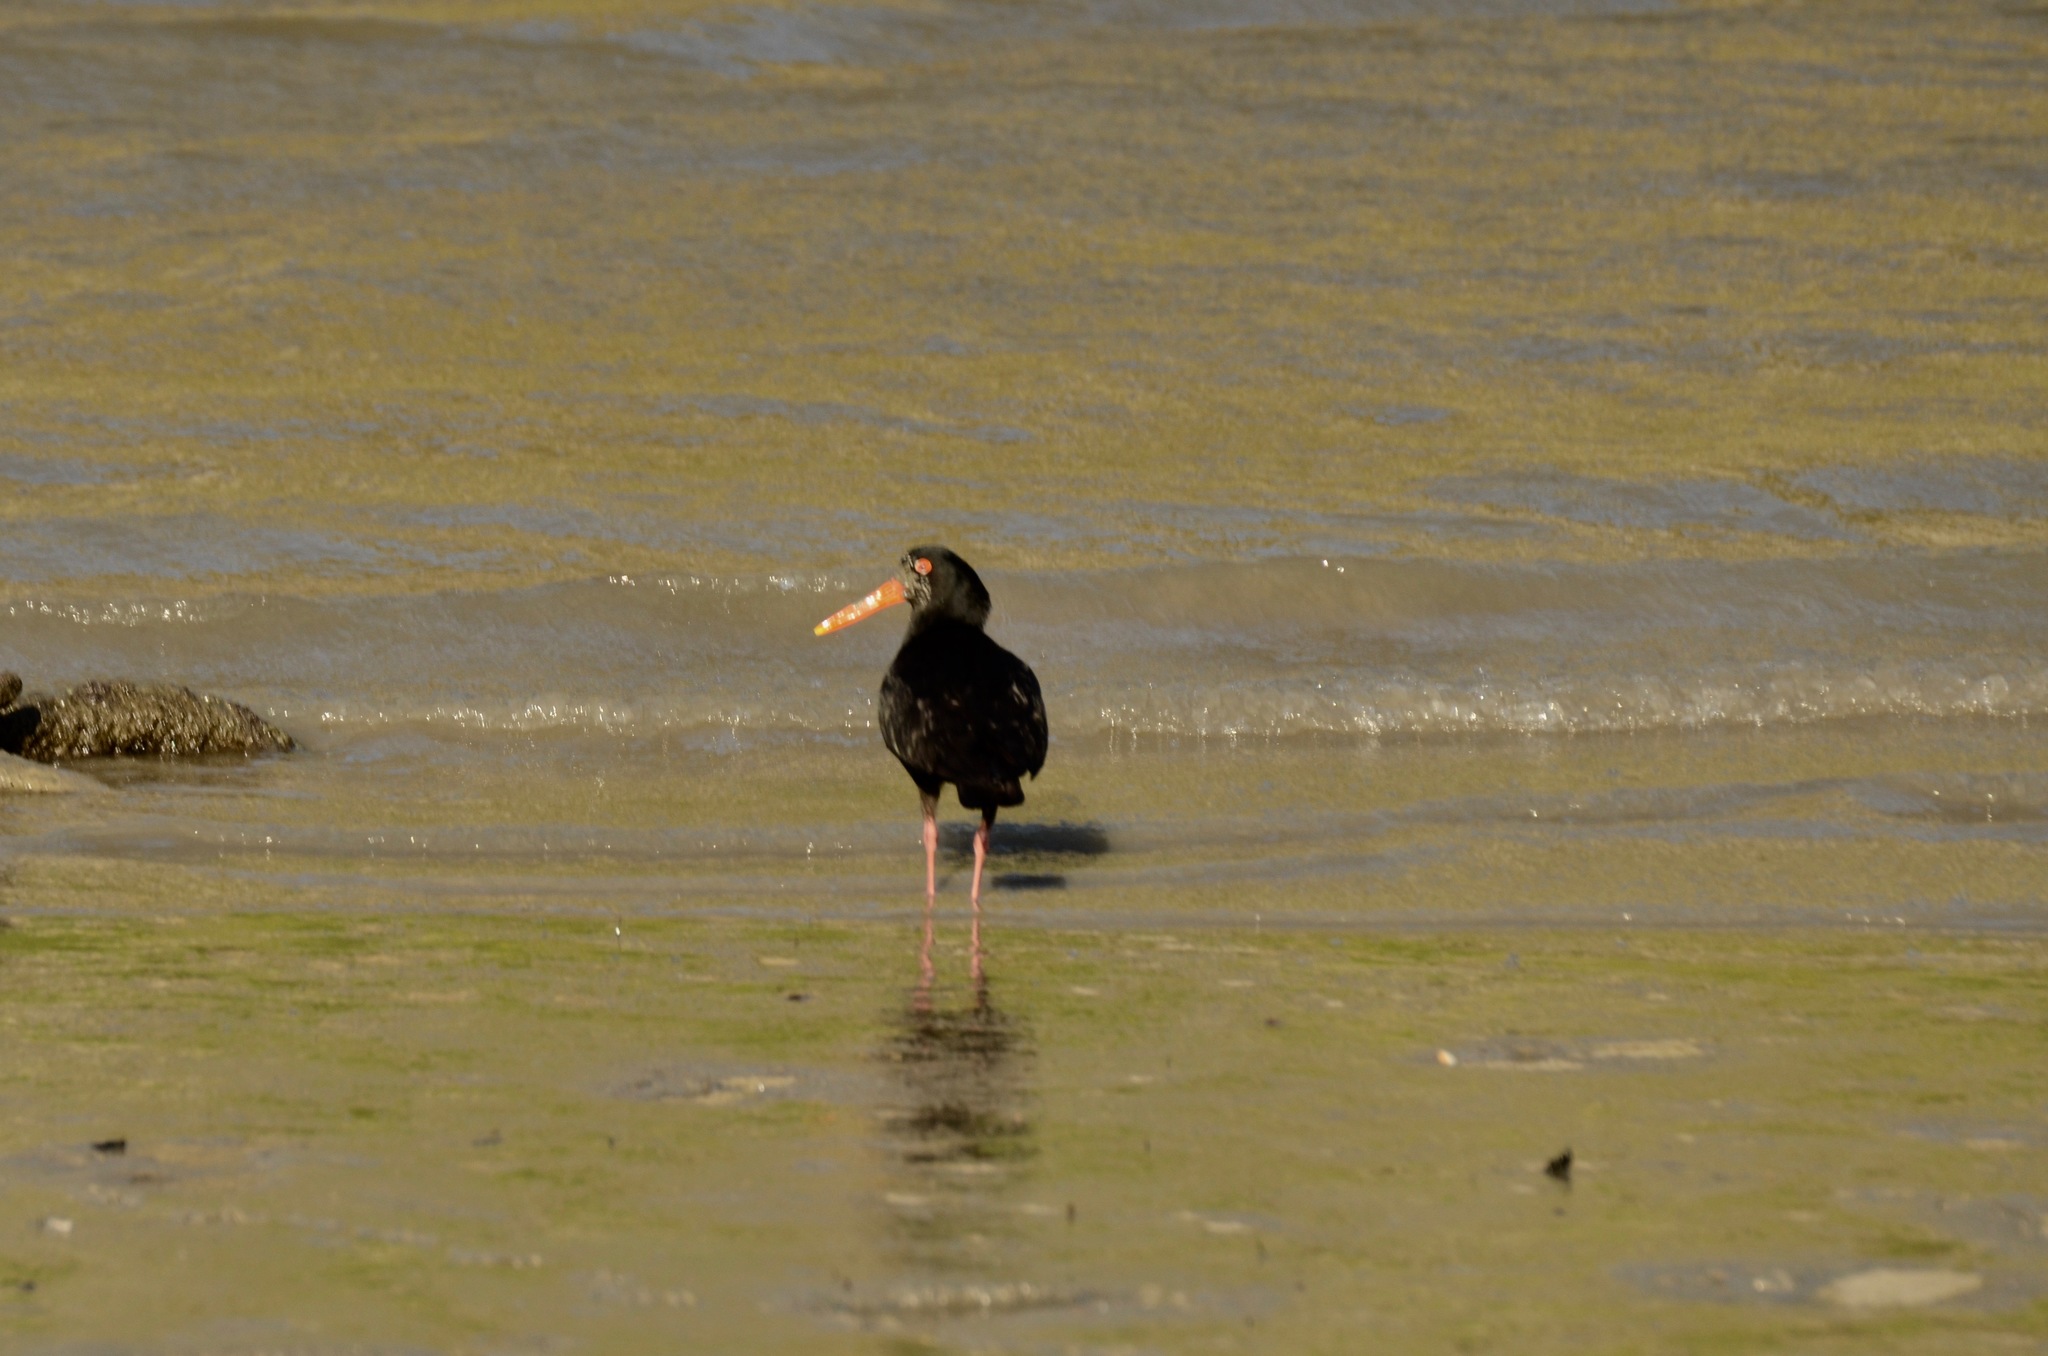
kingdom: Animalia
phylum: Chordata
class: Aves
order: Charadriiformes
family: Haematopodidae
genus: Haematopus
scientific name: Haematopus unicolor
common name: Variable oystercatcher
